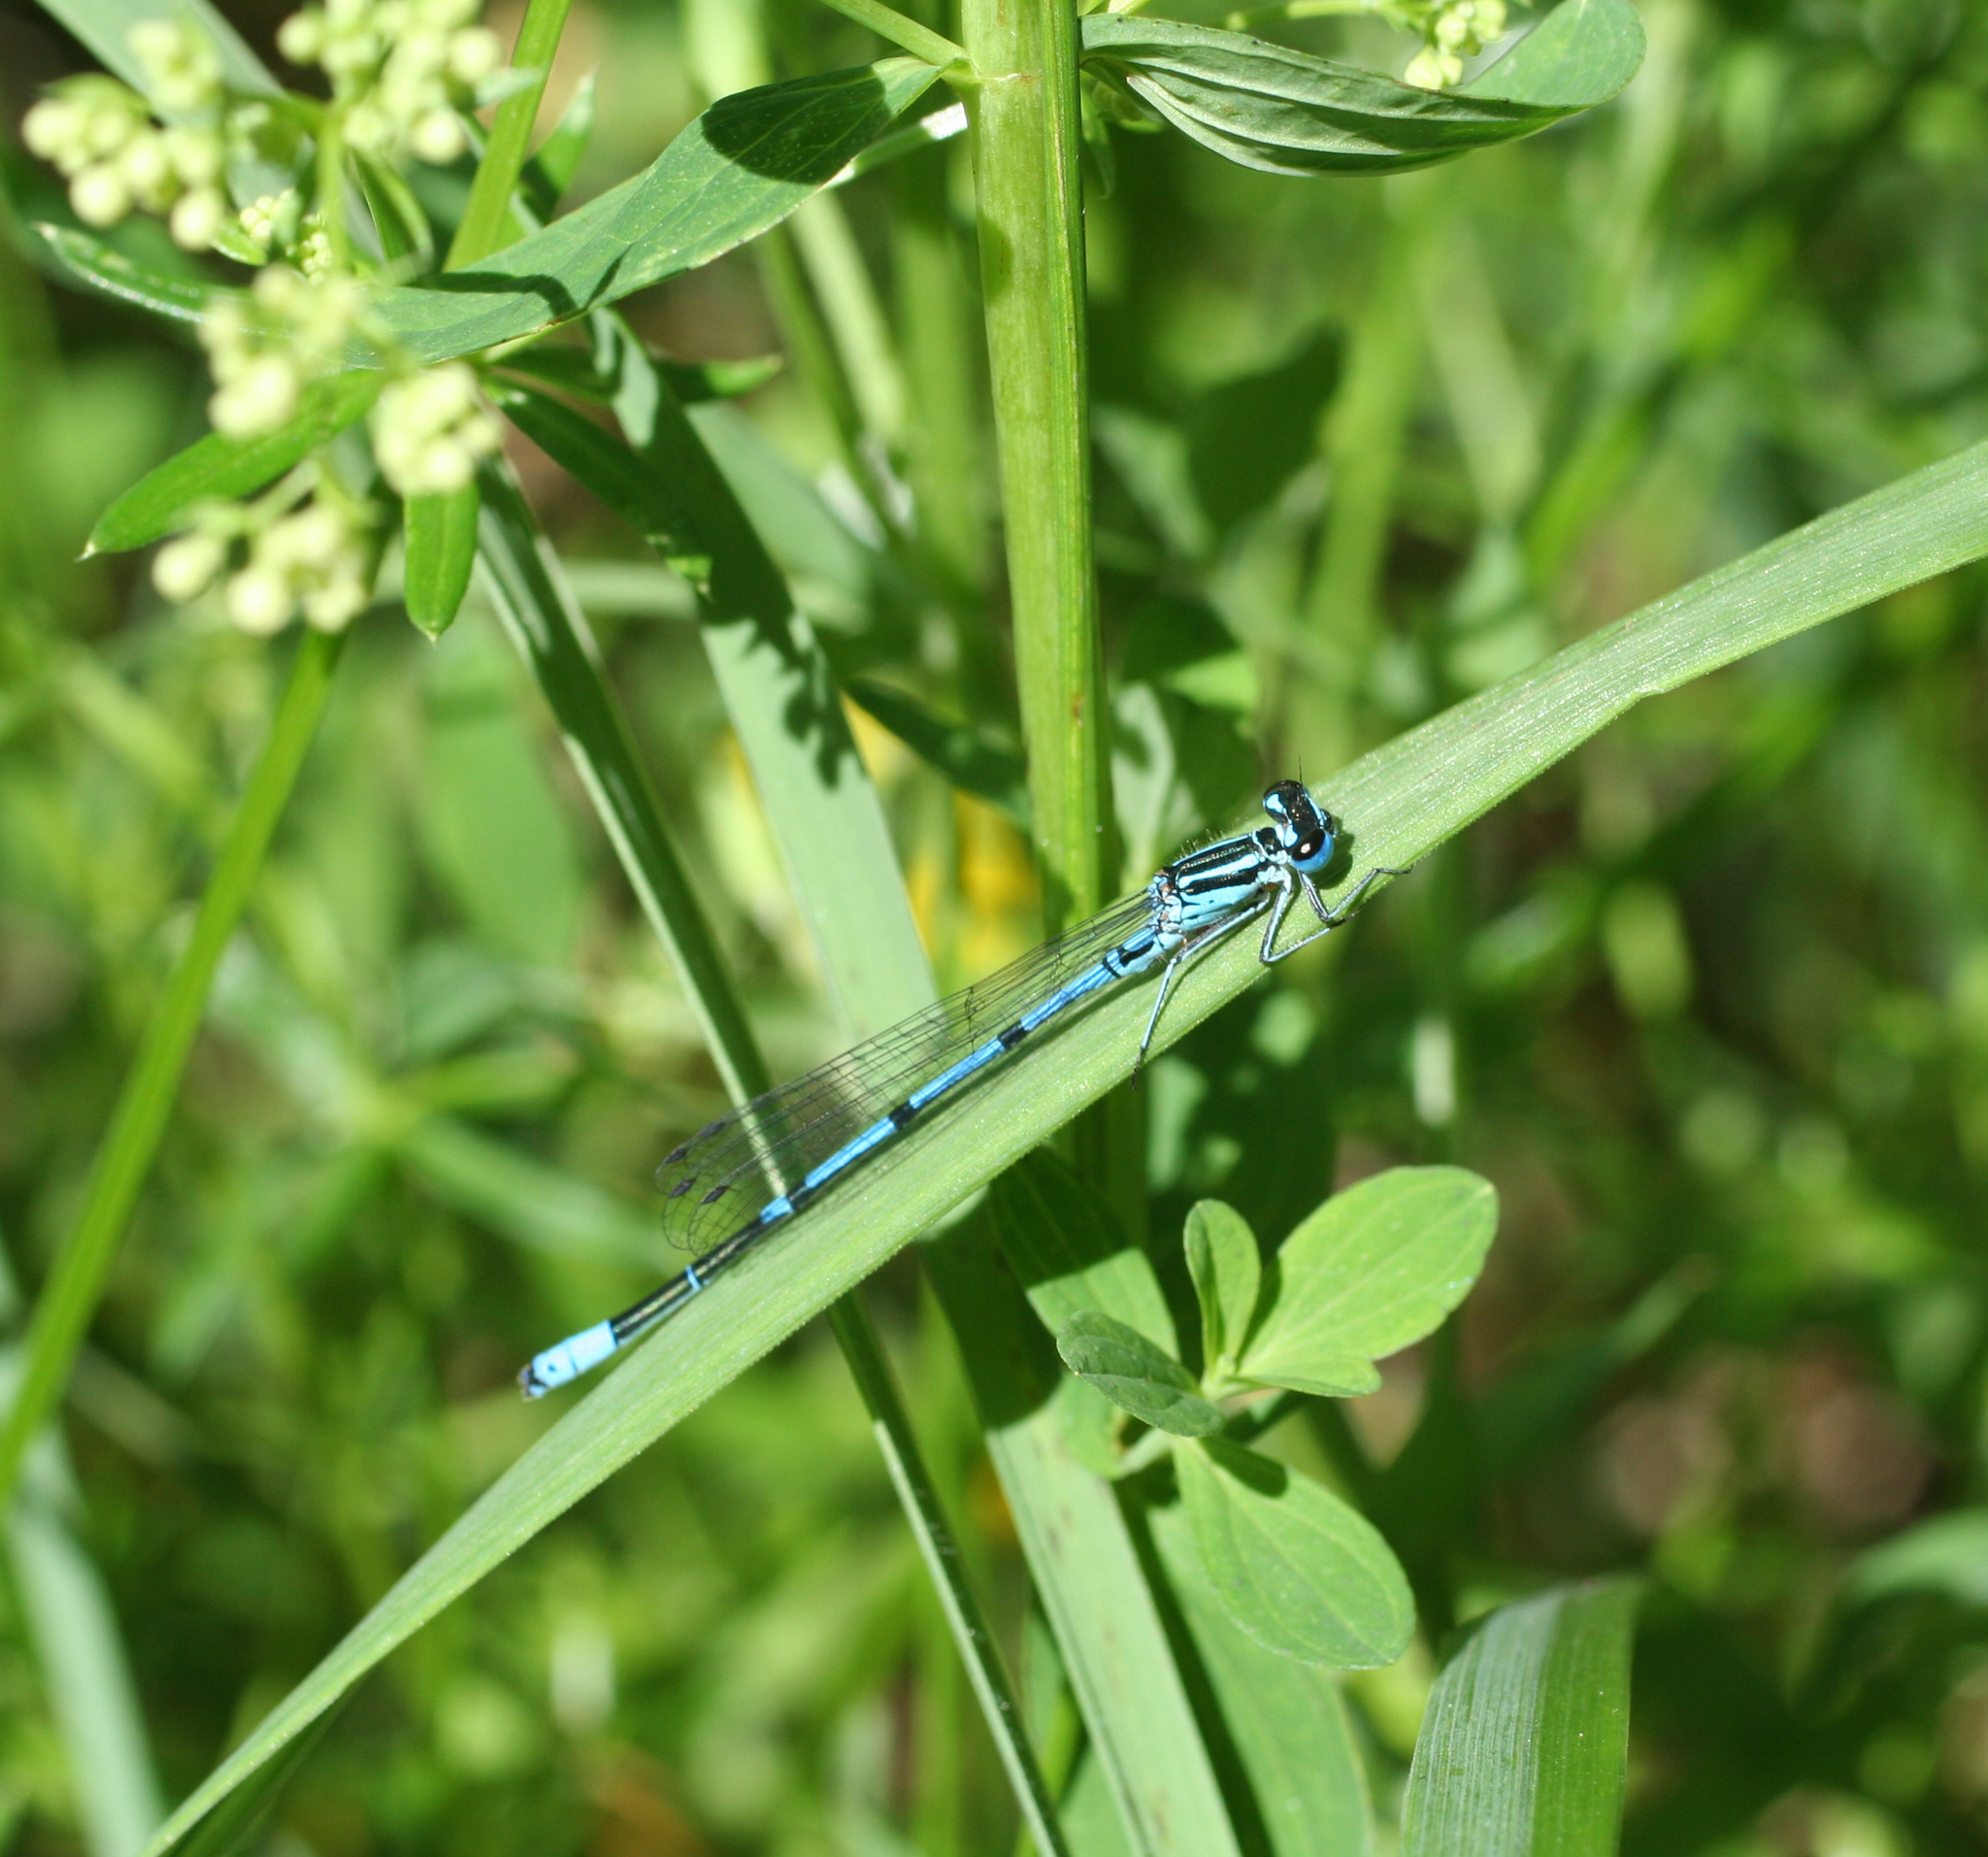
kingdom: Animalia
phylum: Arthropoda
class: Insecta
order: Odonata
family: Coenagrionidae
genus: Coenagrion
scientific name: Coenagrion puella
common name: Azure damselfly
